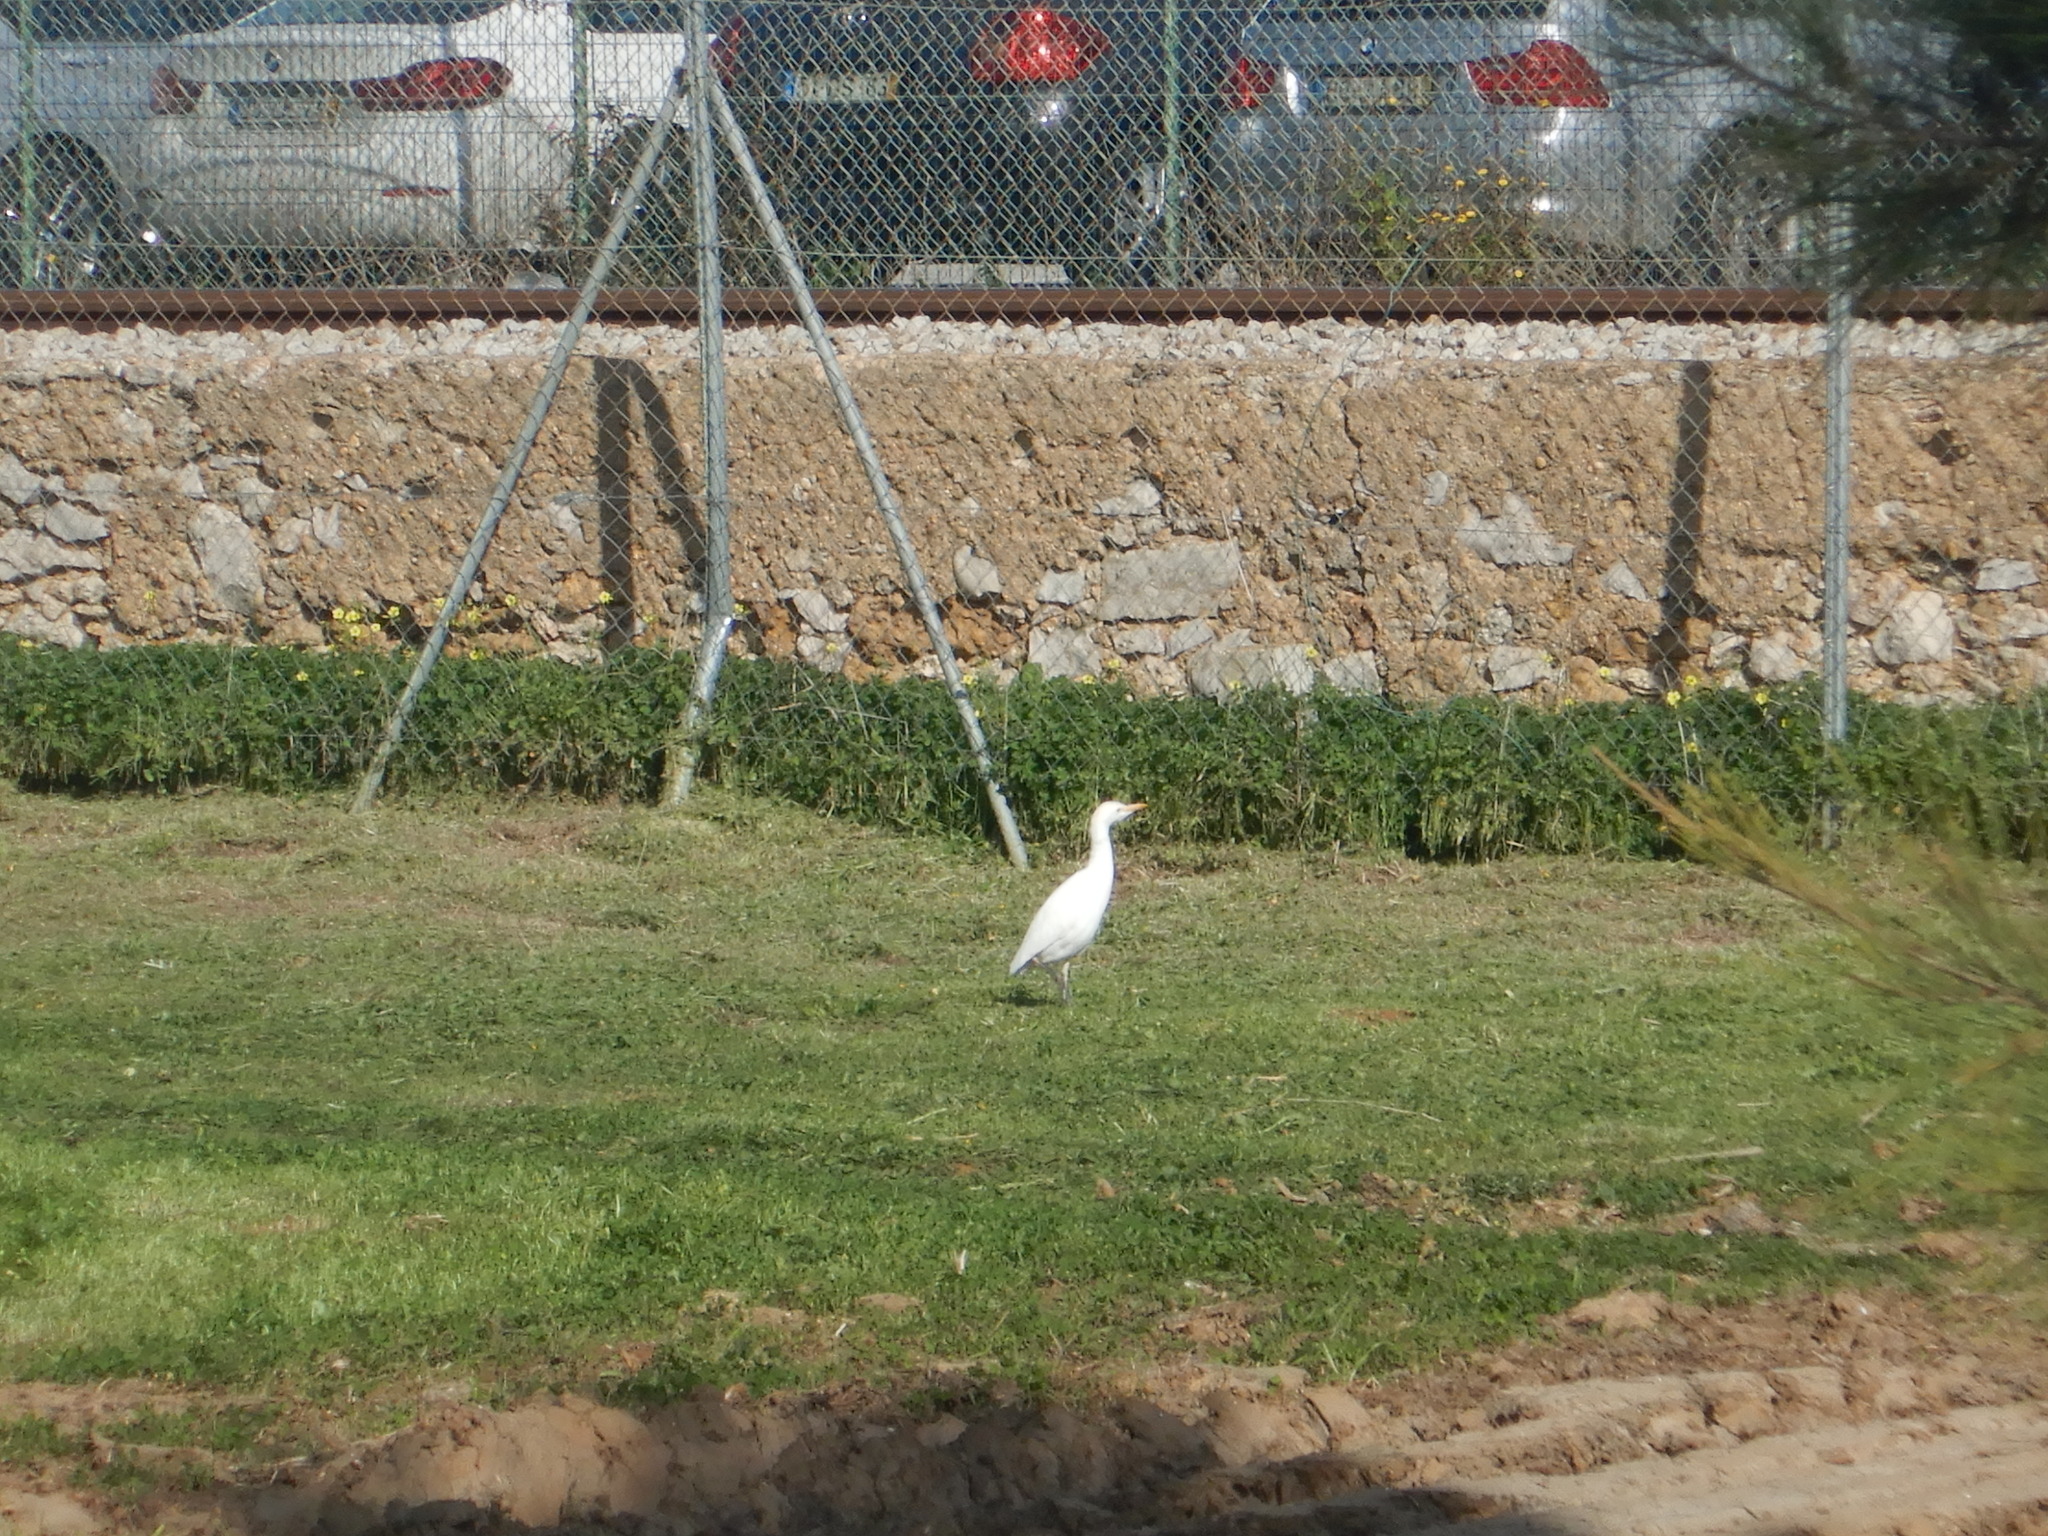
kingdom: Animalia
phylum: Chordata
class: Aves
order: Pelecaniformes
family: Ardeidae
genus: Bubulcus
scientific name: Bubulcus ibis
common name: Cattle egret
